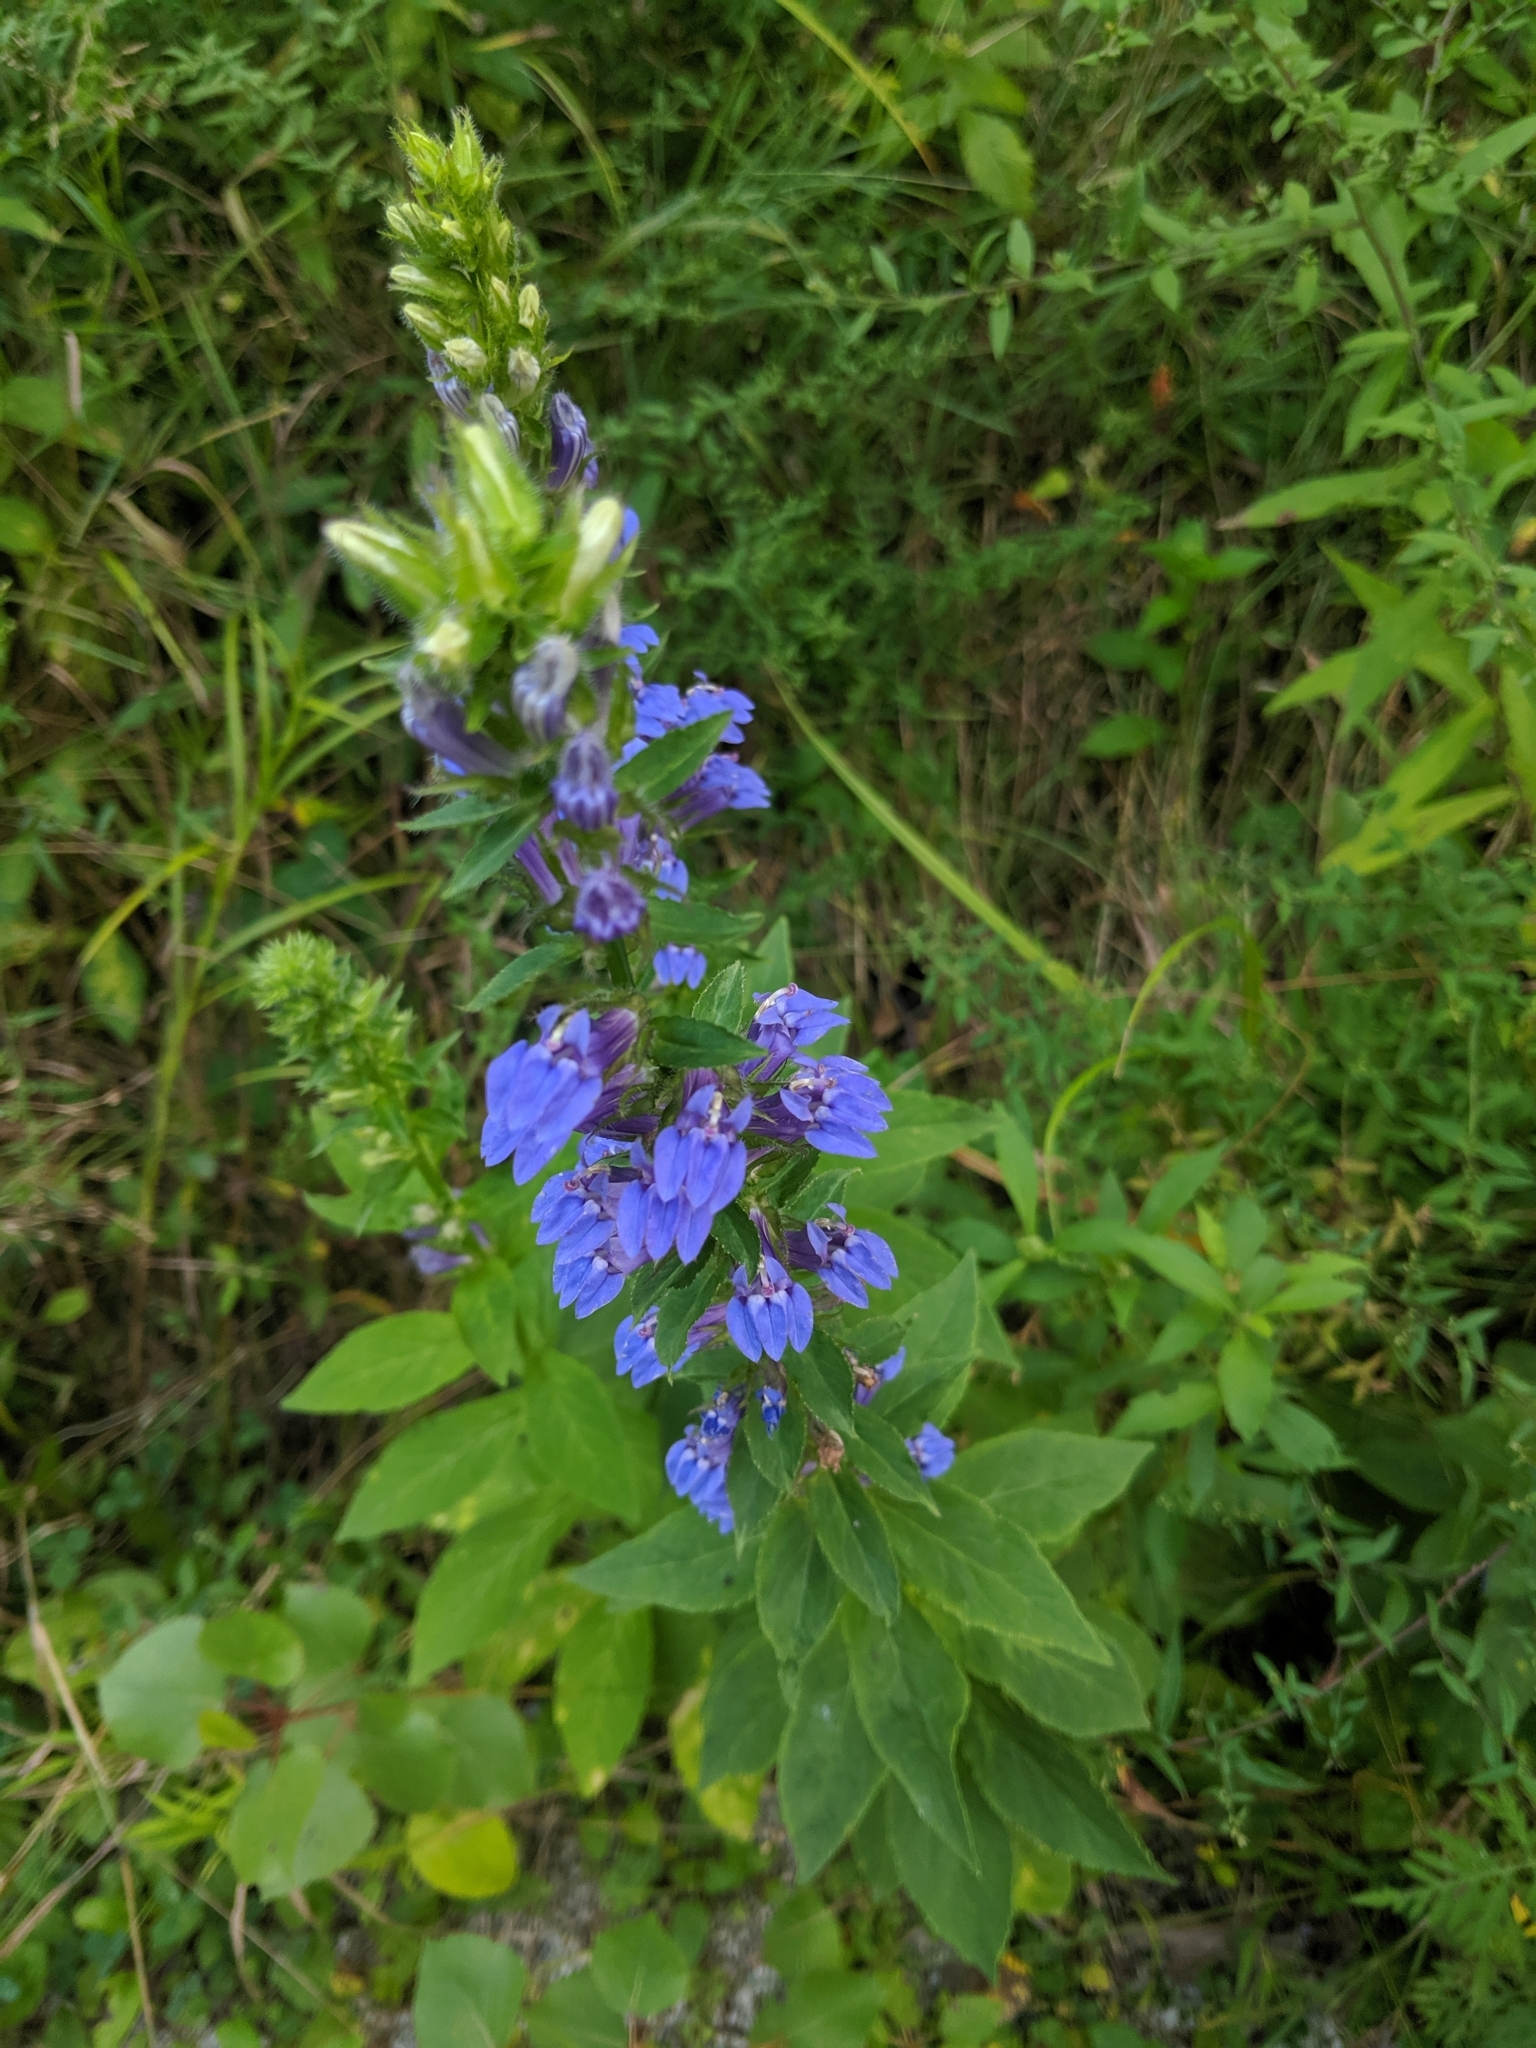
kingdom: Plantae
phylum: Tracheophyta
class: Magnoliopsida
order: Asterales
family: Campanulaceae
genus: Lobelia
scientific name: Lobelia siphilitica
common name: Great lobelia
